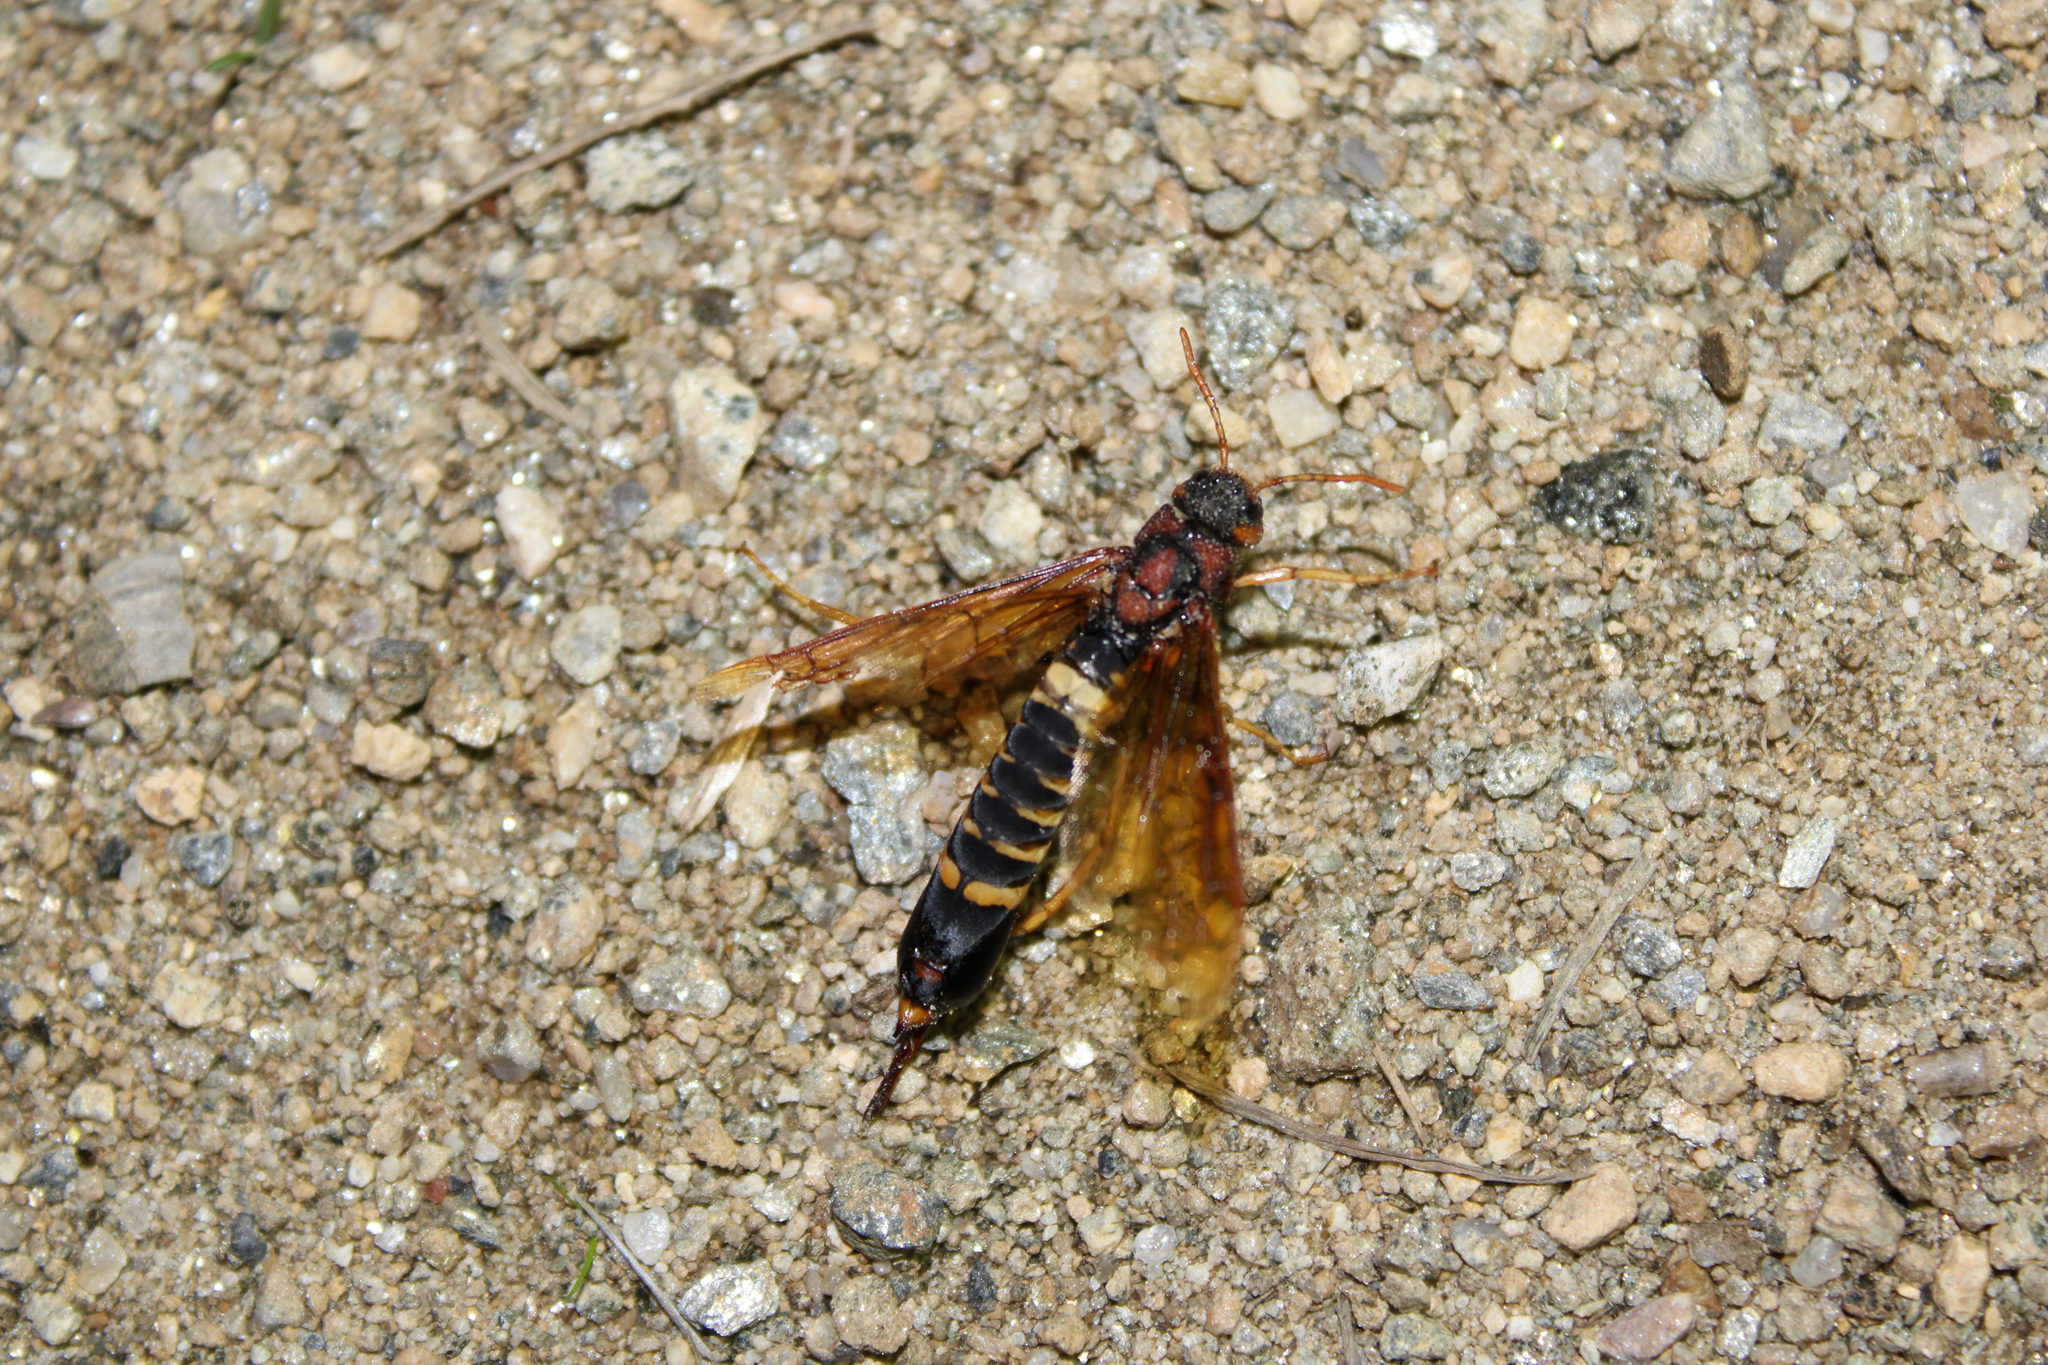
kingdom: Animalia
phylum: Arthropoda
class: Insecta
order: Hymenoptera
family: Siricidae
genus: Tremex
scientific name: Tremex columba
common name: Wasp
